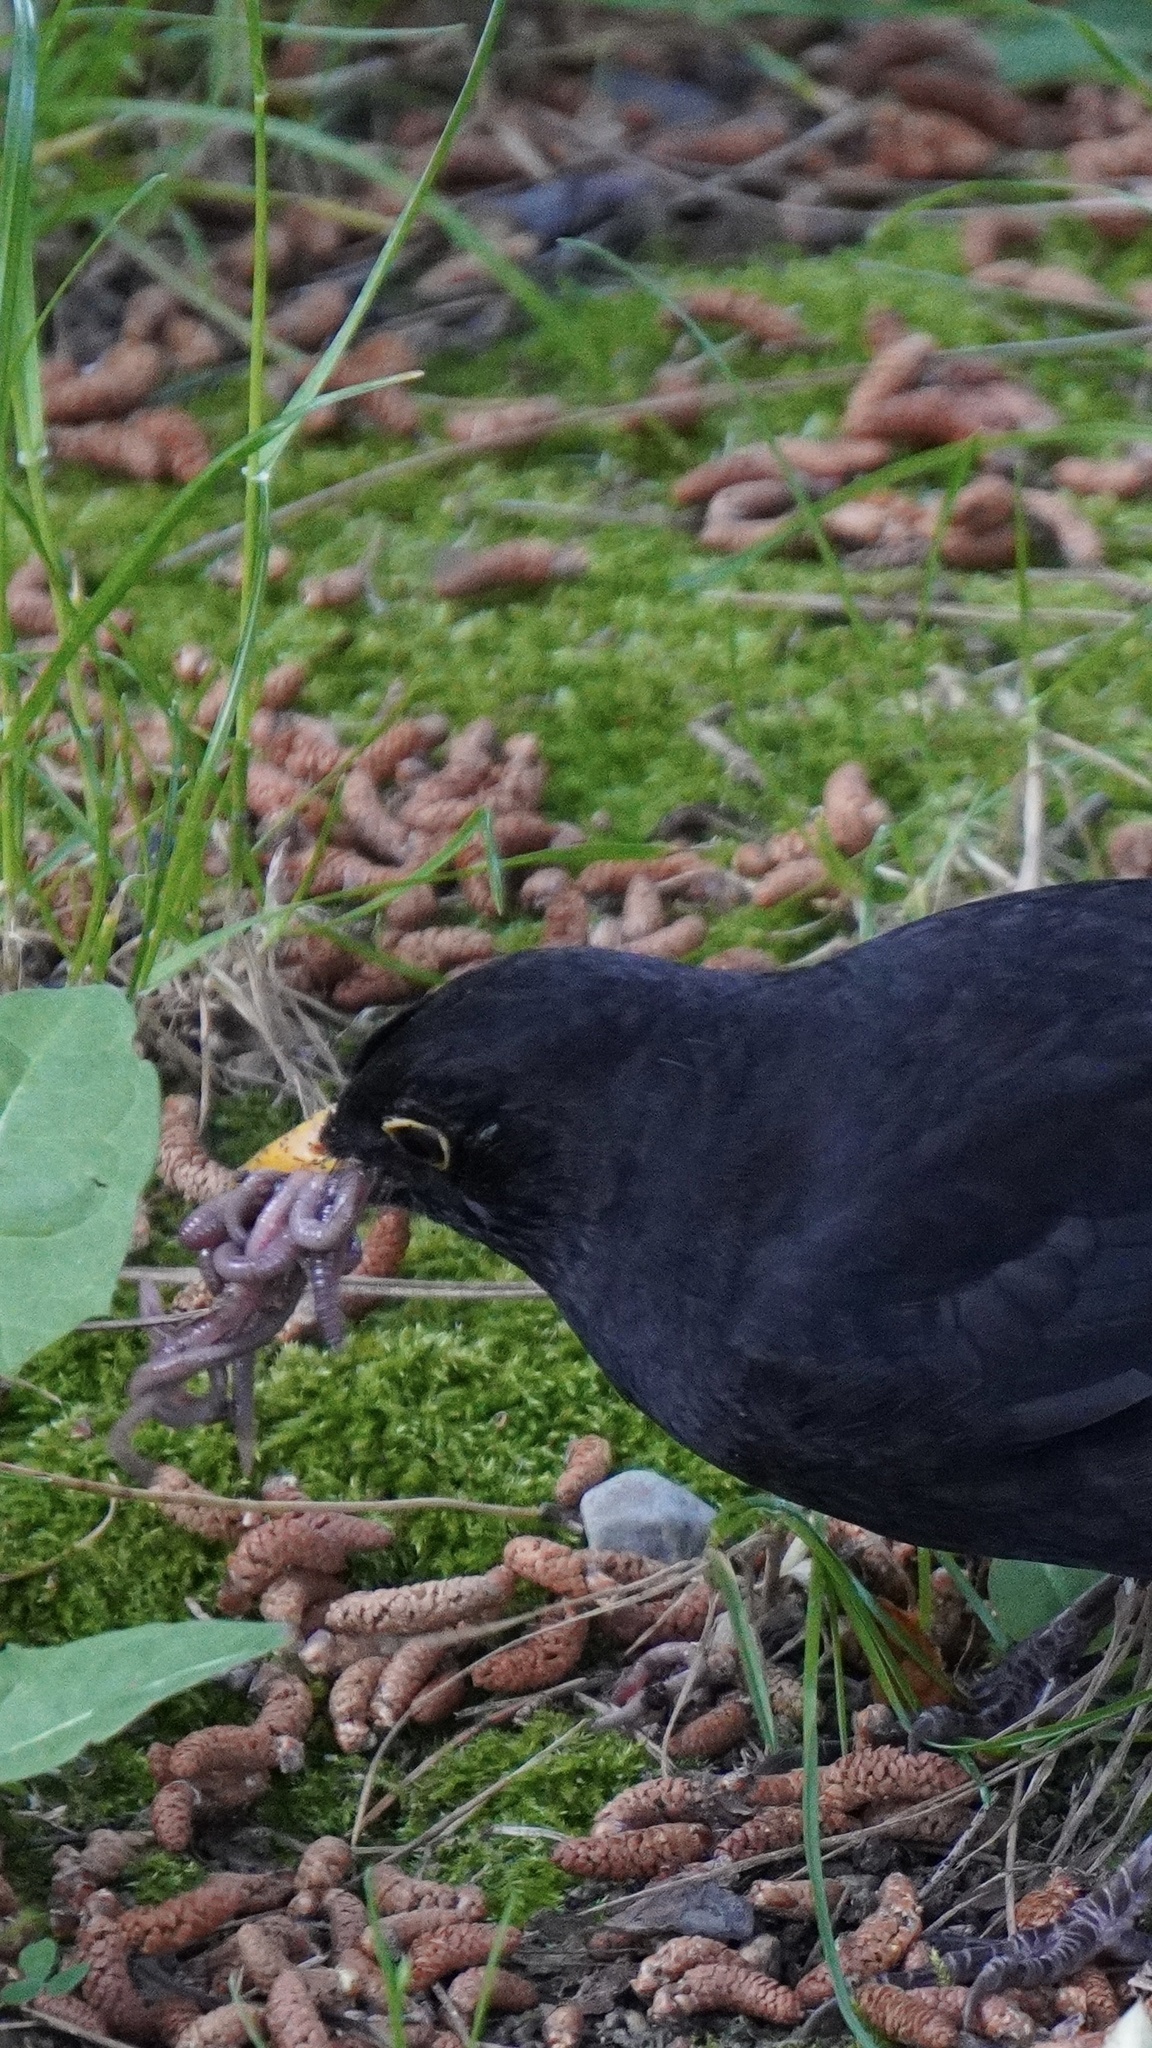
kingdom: Animalia
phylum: Chordata
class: Aves
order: Passeriformes
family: Turdidae
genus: Turdus
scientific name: Turdus merula
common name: Common blackbird
